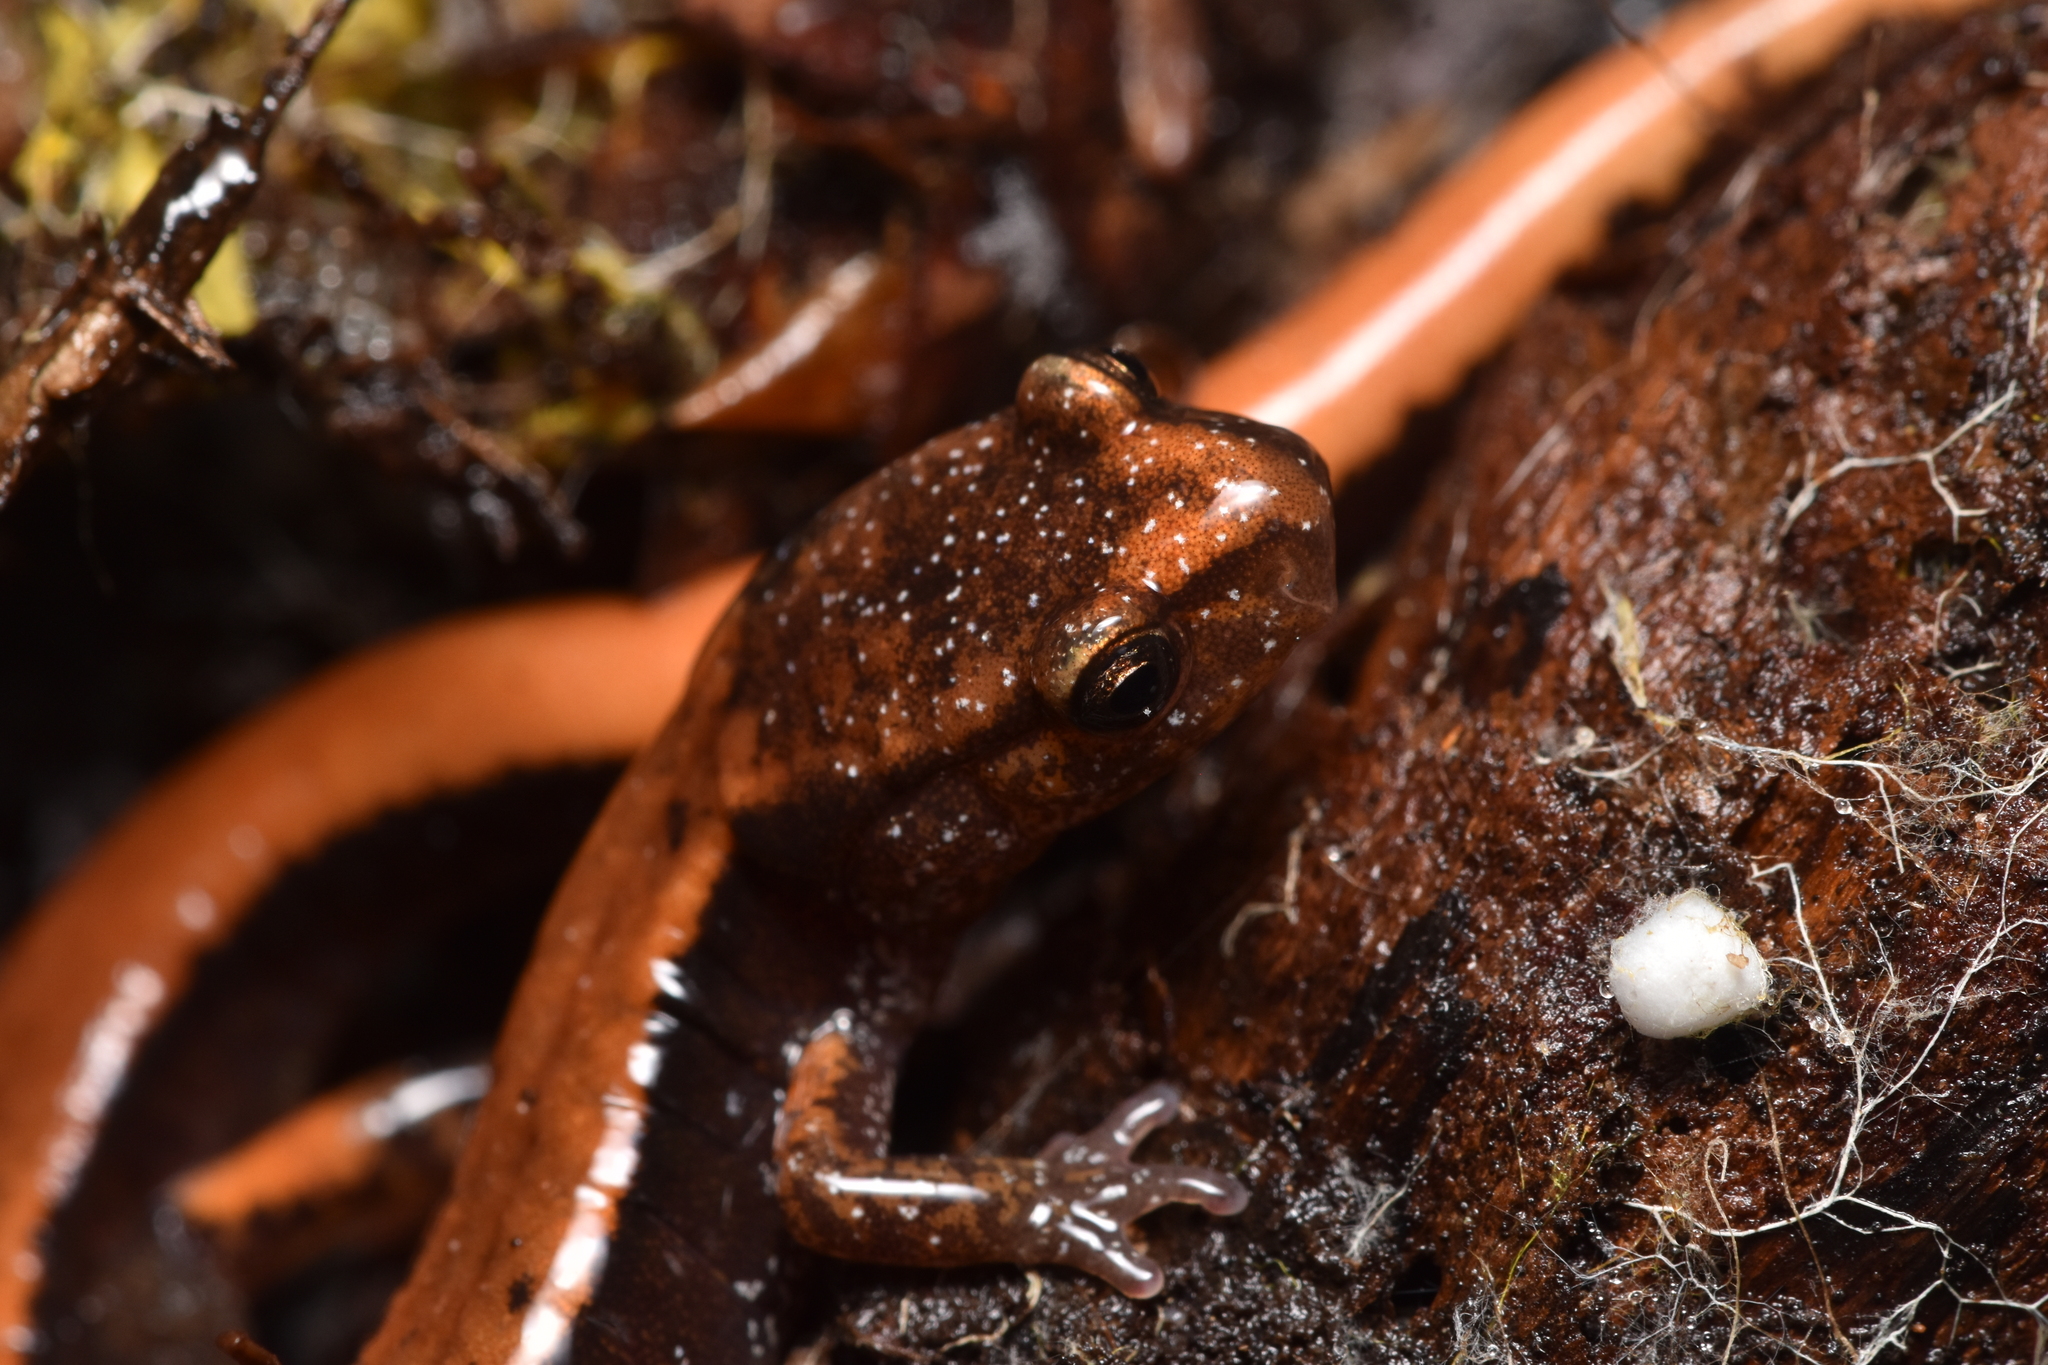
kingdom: Animalia
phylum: Chordata
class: Amphibia
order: Caudata
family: Plethodontidae
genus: Plethodon
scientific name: Plethodon vehiculum
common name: Western red-backed salamander
